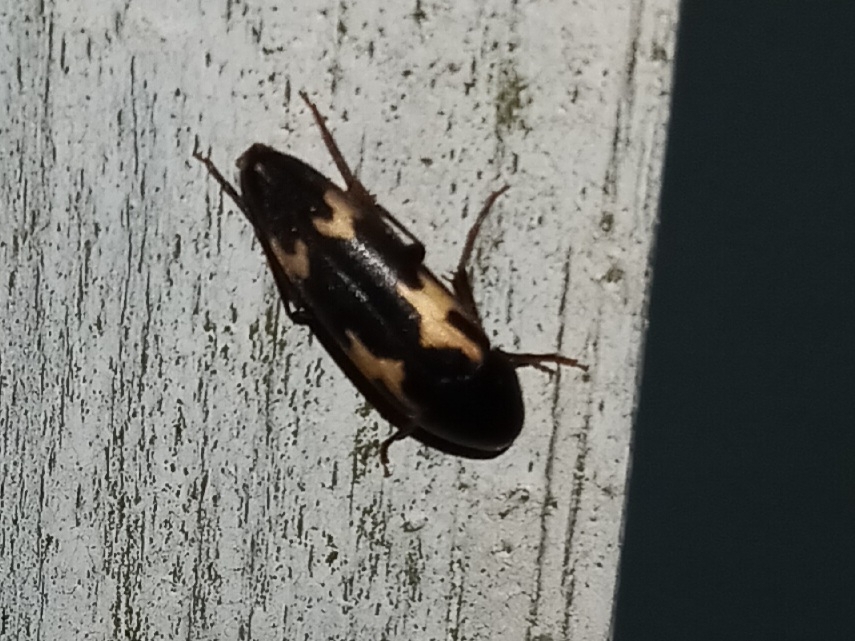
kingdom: Animalia
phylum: Arthropoda
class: Insecta
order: Coleoptera
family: Melandryidae
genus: Dircaea
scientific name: Dircaea liturata
